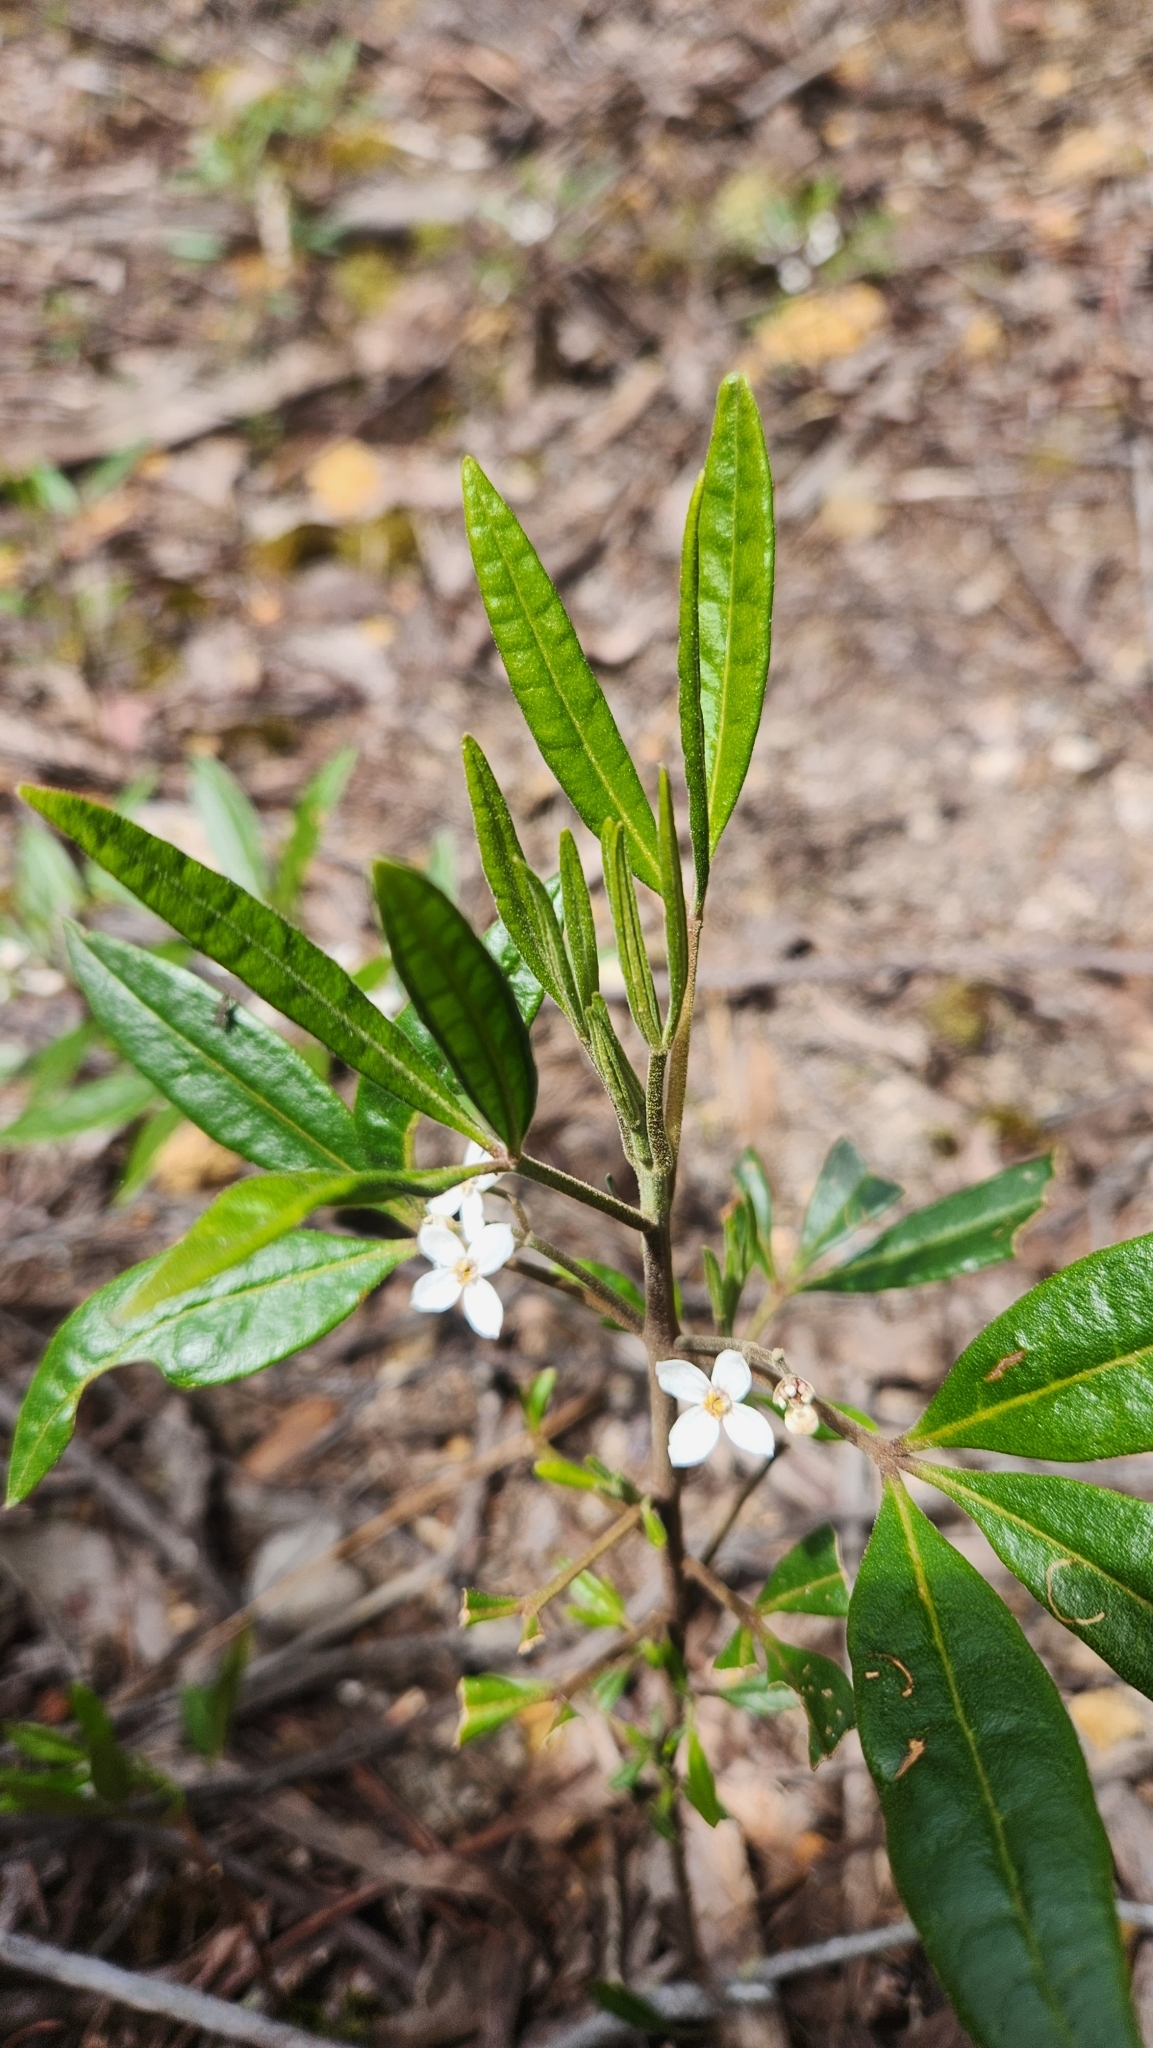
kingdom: Plantae
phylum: Tracheophyta
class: Magnoliopsida
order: Sapindales
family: Rutaceae
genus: Zieria
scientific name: Zieria arborescens
